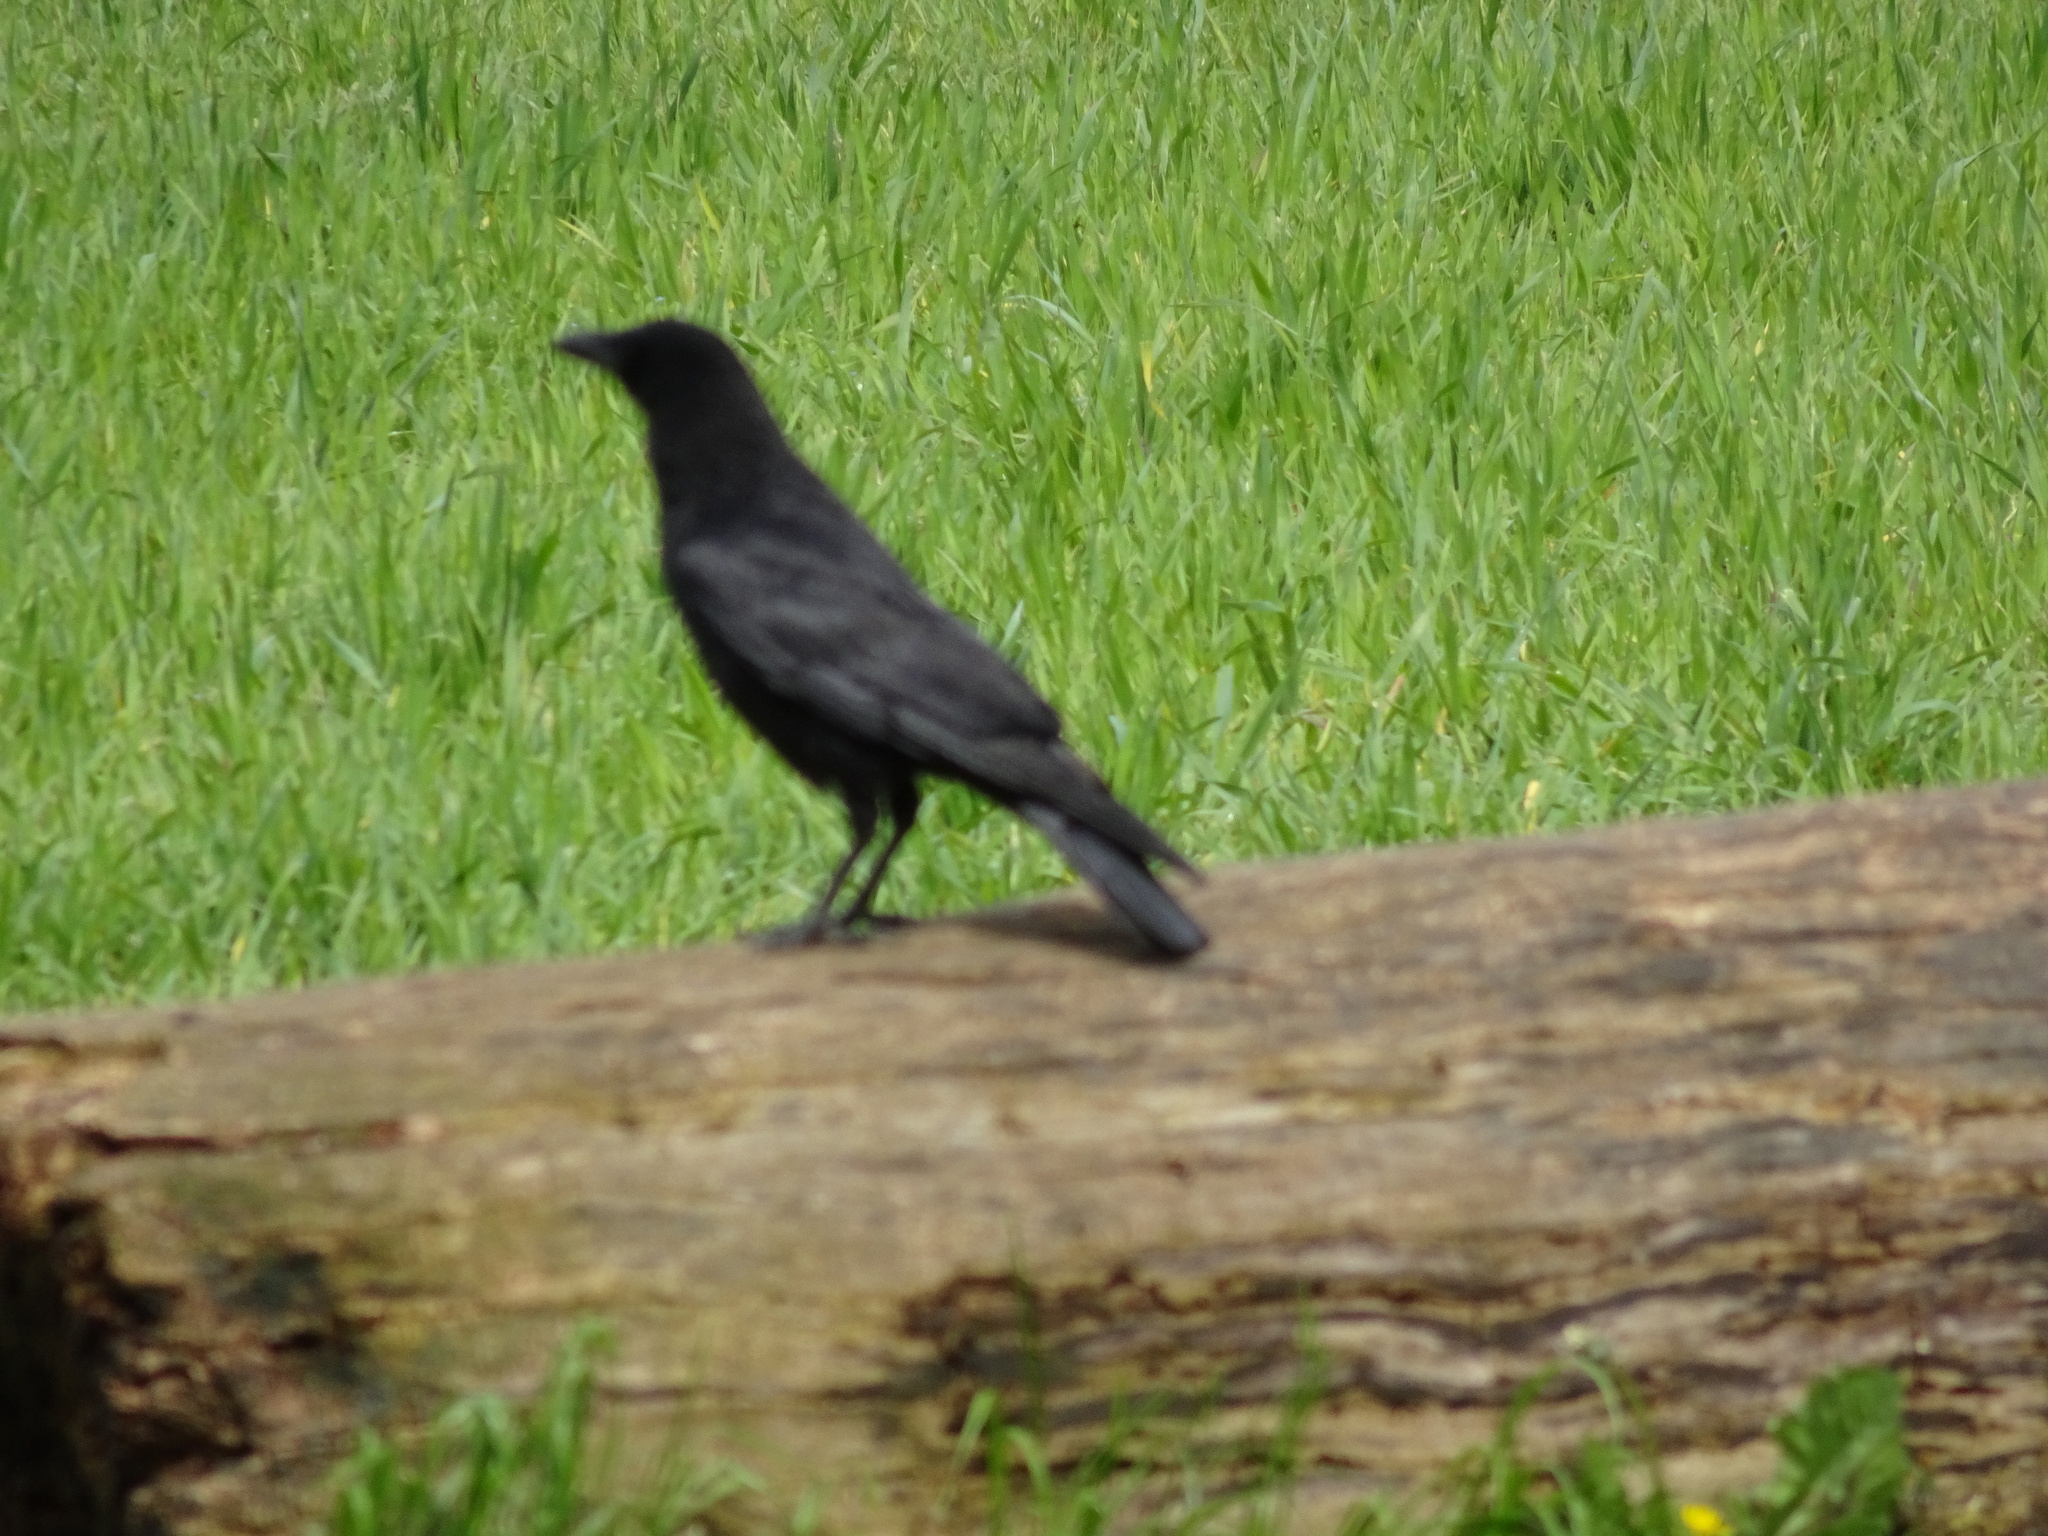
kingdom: Animalia
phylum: Chordata
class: Aves
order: Passeriformes
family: Corvidae
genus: Corvus
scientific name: Corvus corone
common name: Carrion crow
